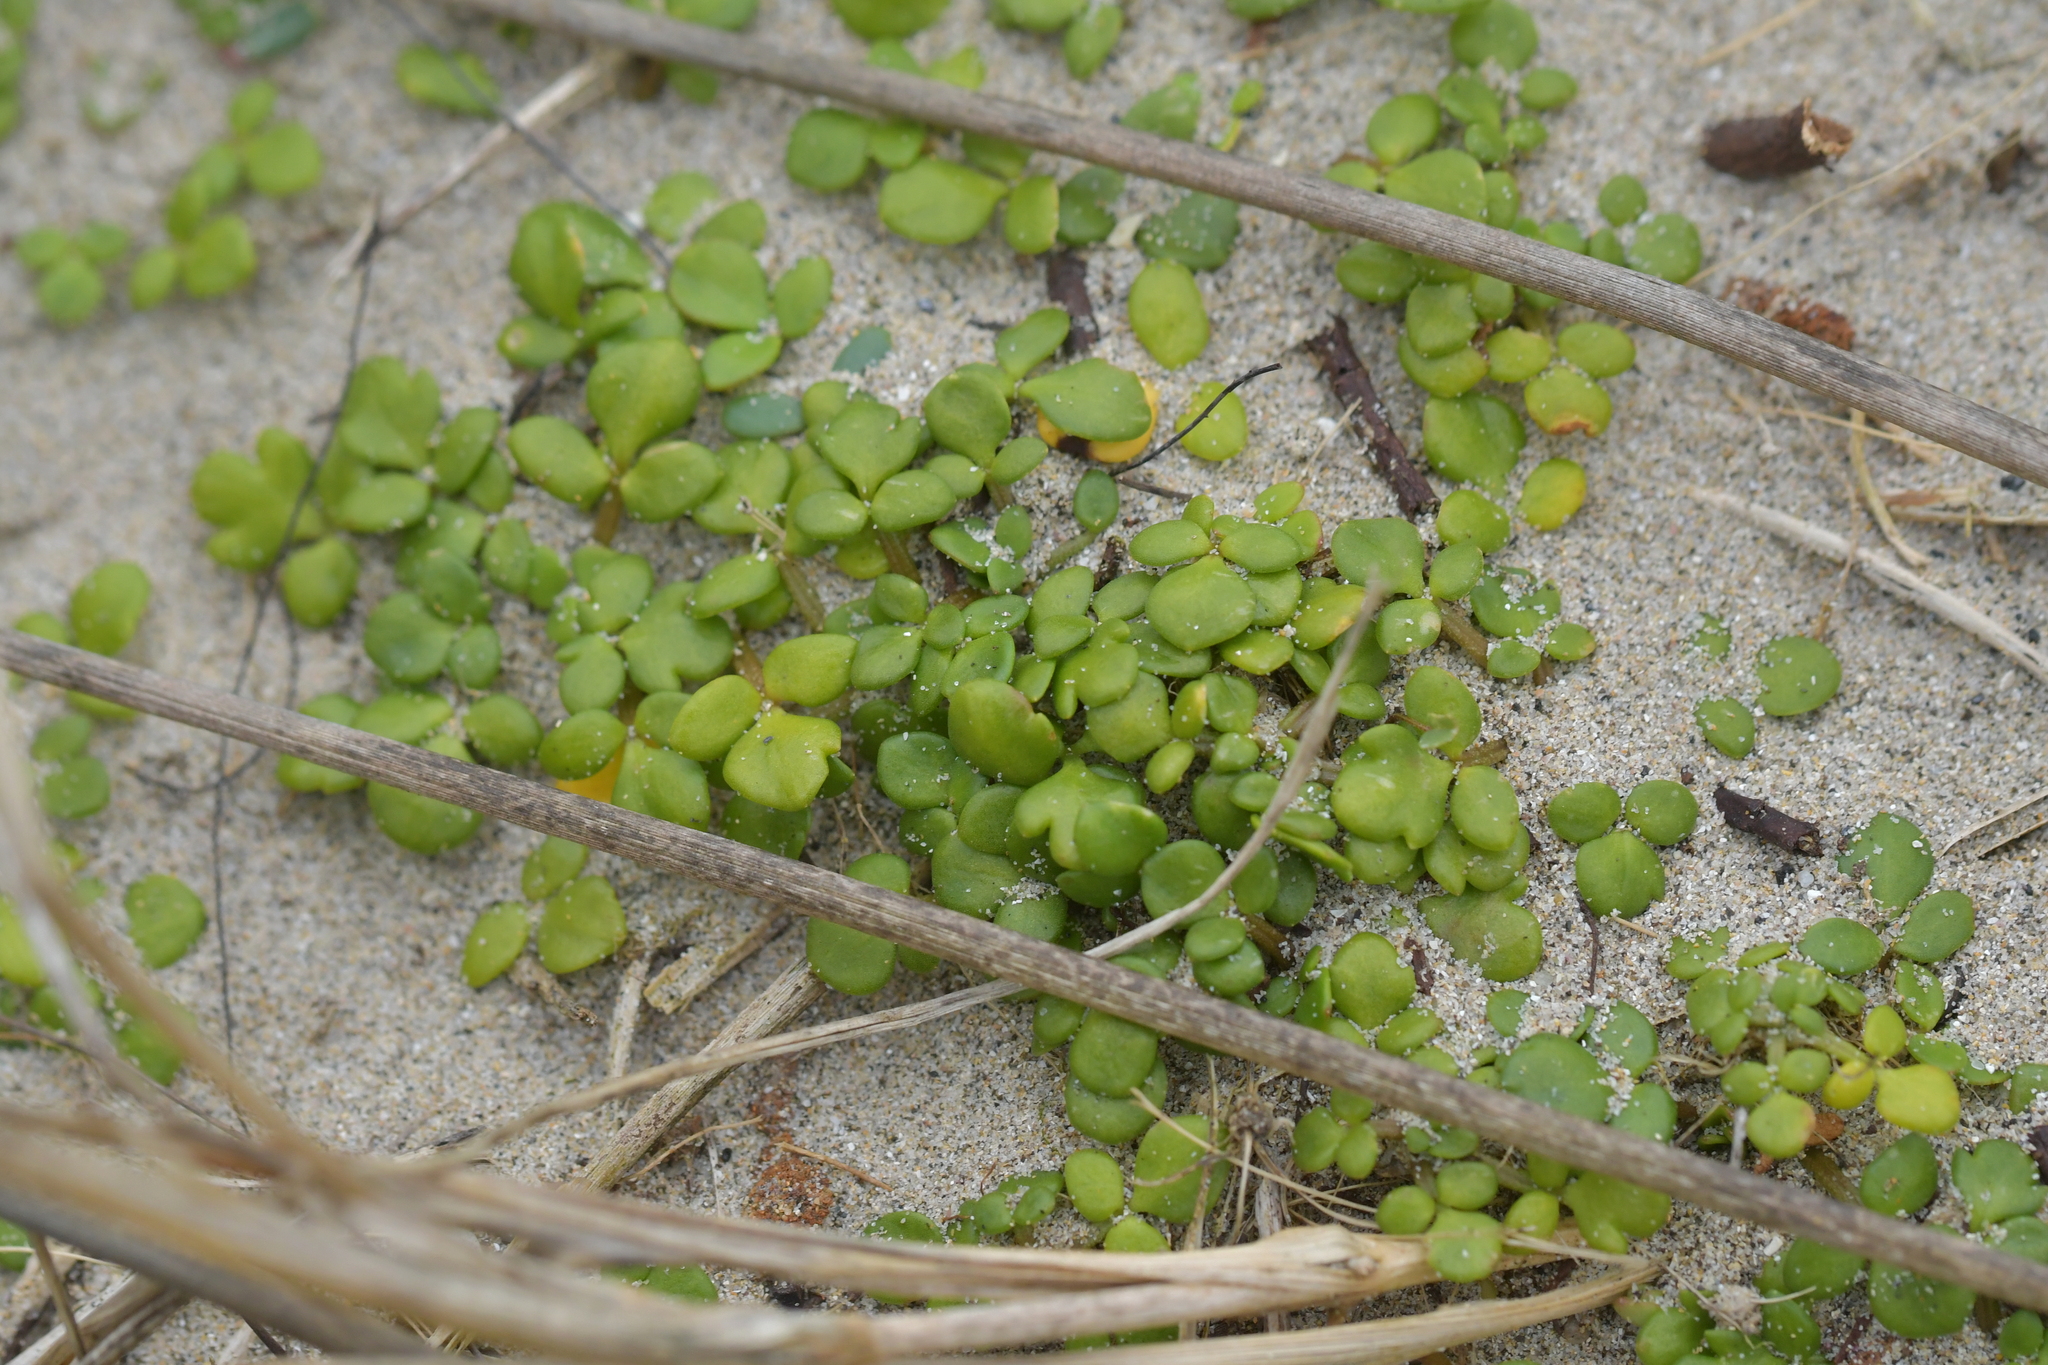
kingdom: Plantae
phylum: Tracheophyta
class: Magnoliopsida
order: Ranunculales
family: Ranunculaceae
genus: Ranunculus
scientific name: Ranunculus acaulis
